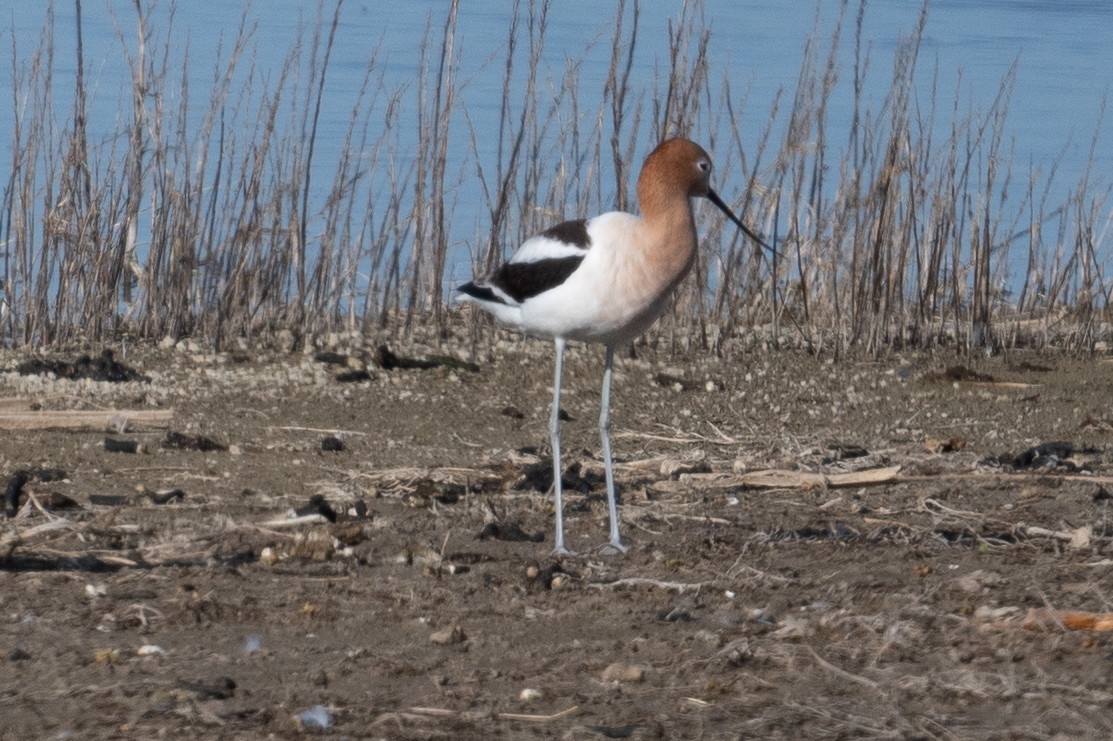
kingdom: Animalia
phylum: Chordata
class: Aves
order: Charadriiformes
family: Recurvirostridae
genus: Recurvirostra
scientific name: Recurvirostra americana
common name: American avocet
